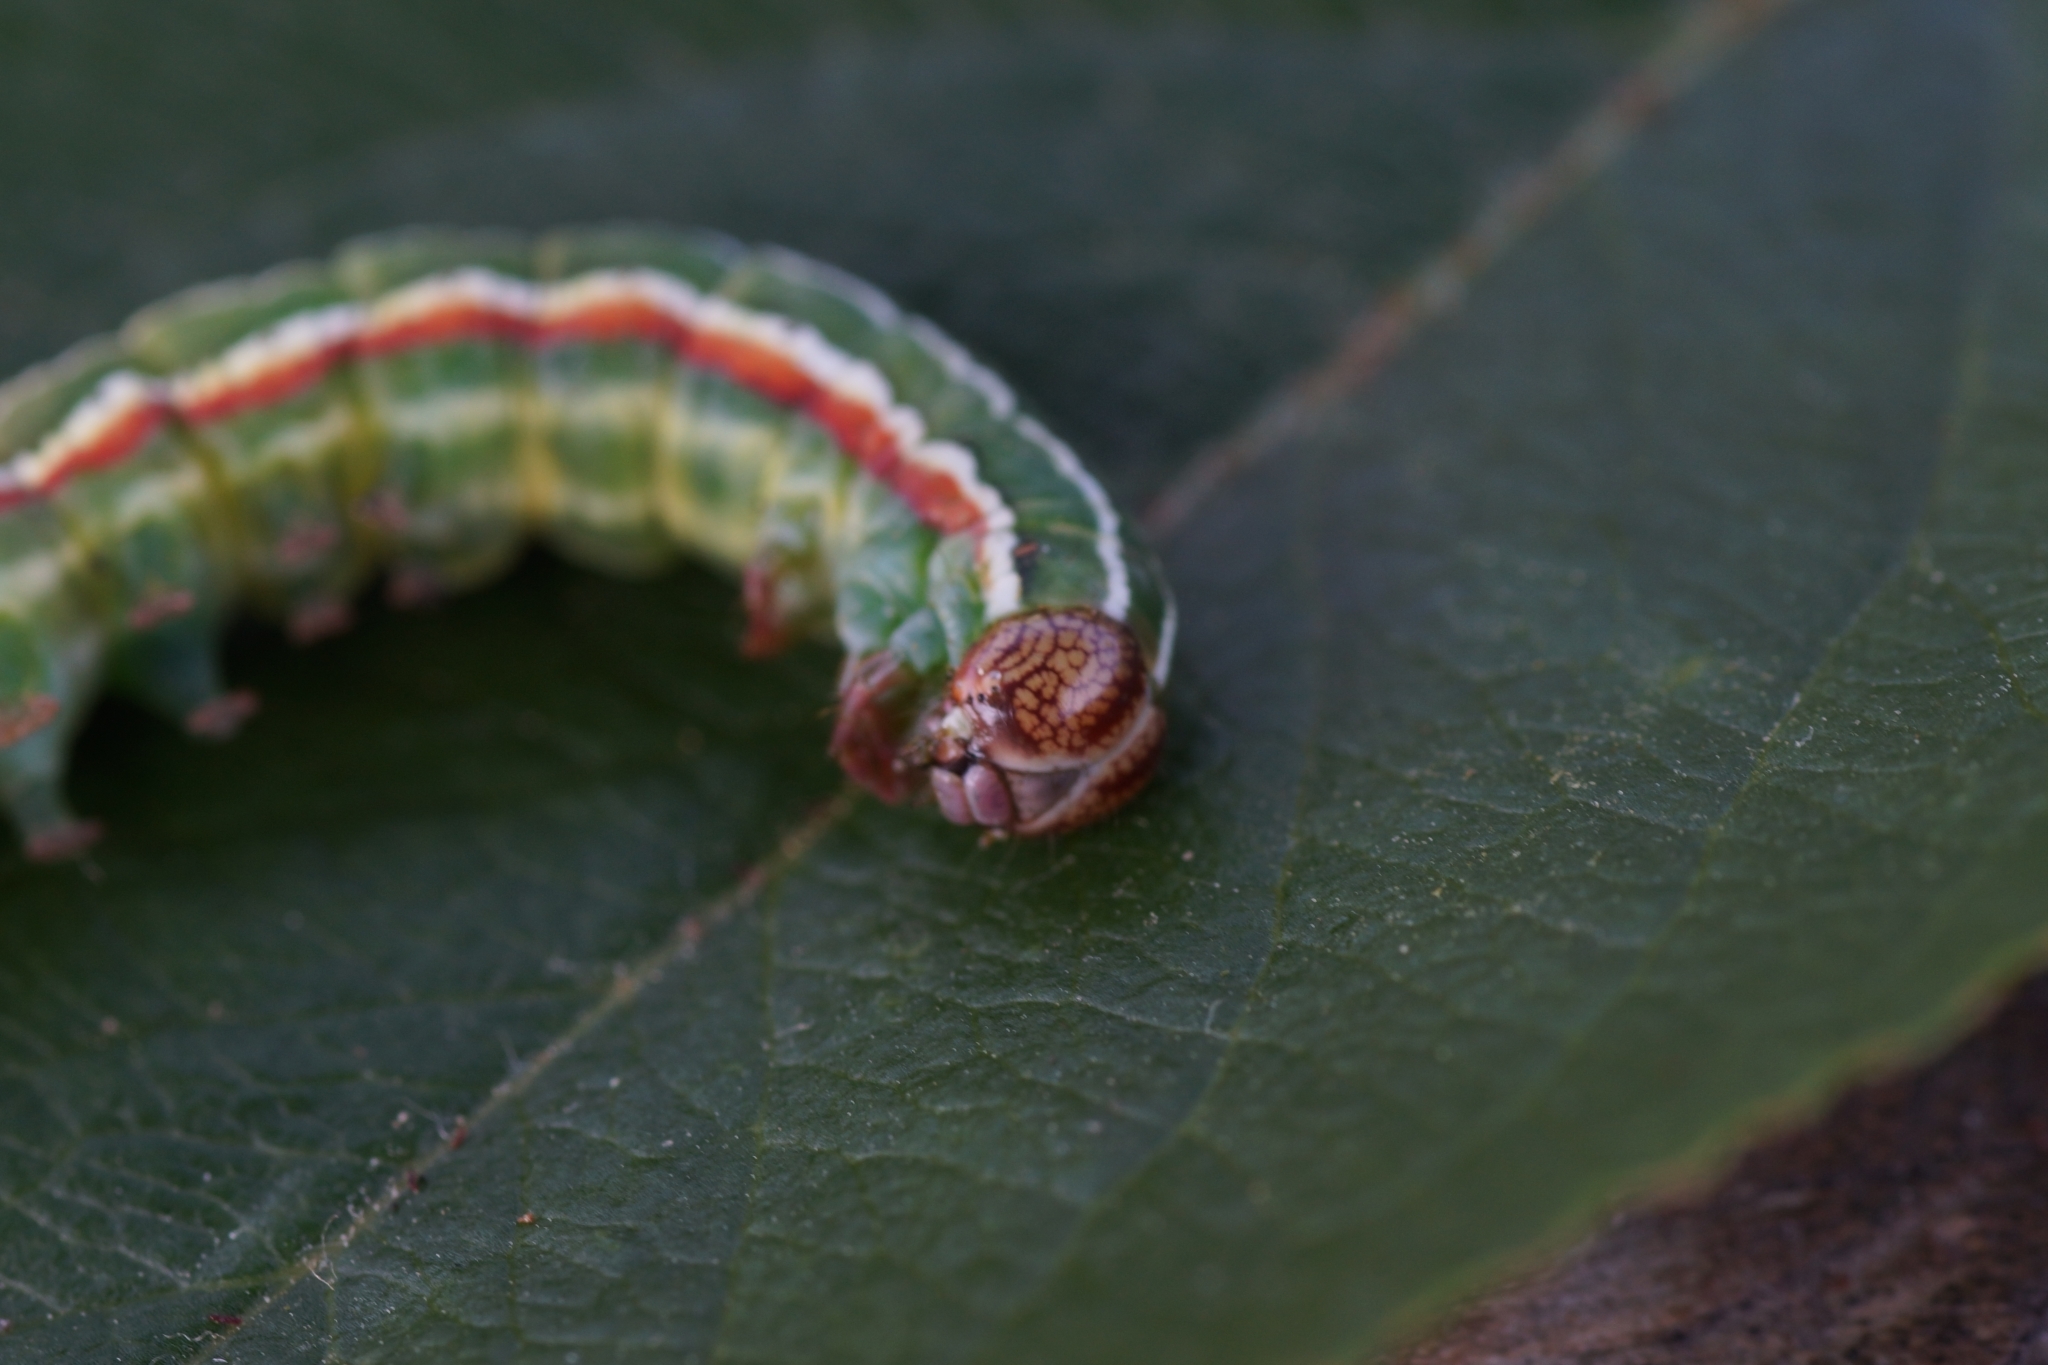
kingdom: Animalia
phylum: Arthropoda
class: Insecta
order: Lepidoptera
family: Noctuidae
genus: Panolis
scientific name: Panolis flammea
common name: Pine beauty
